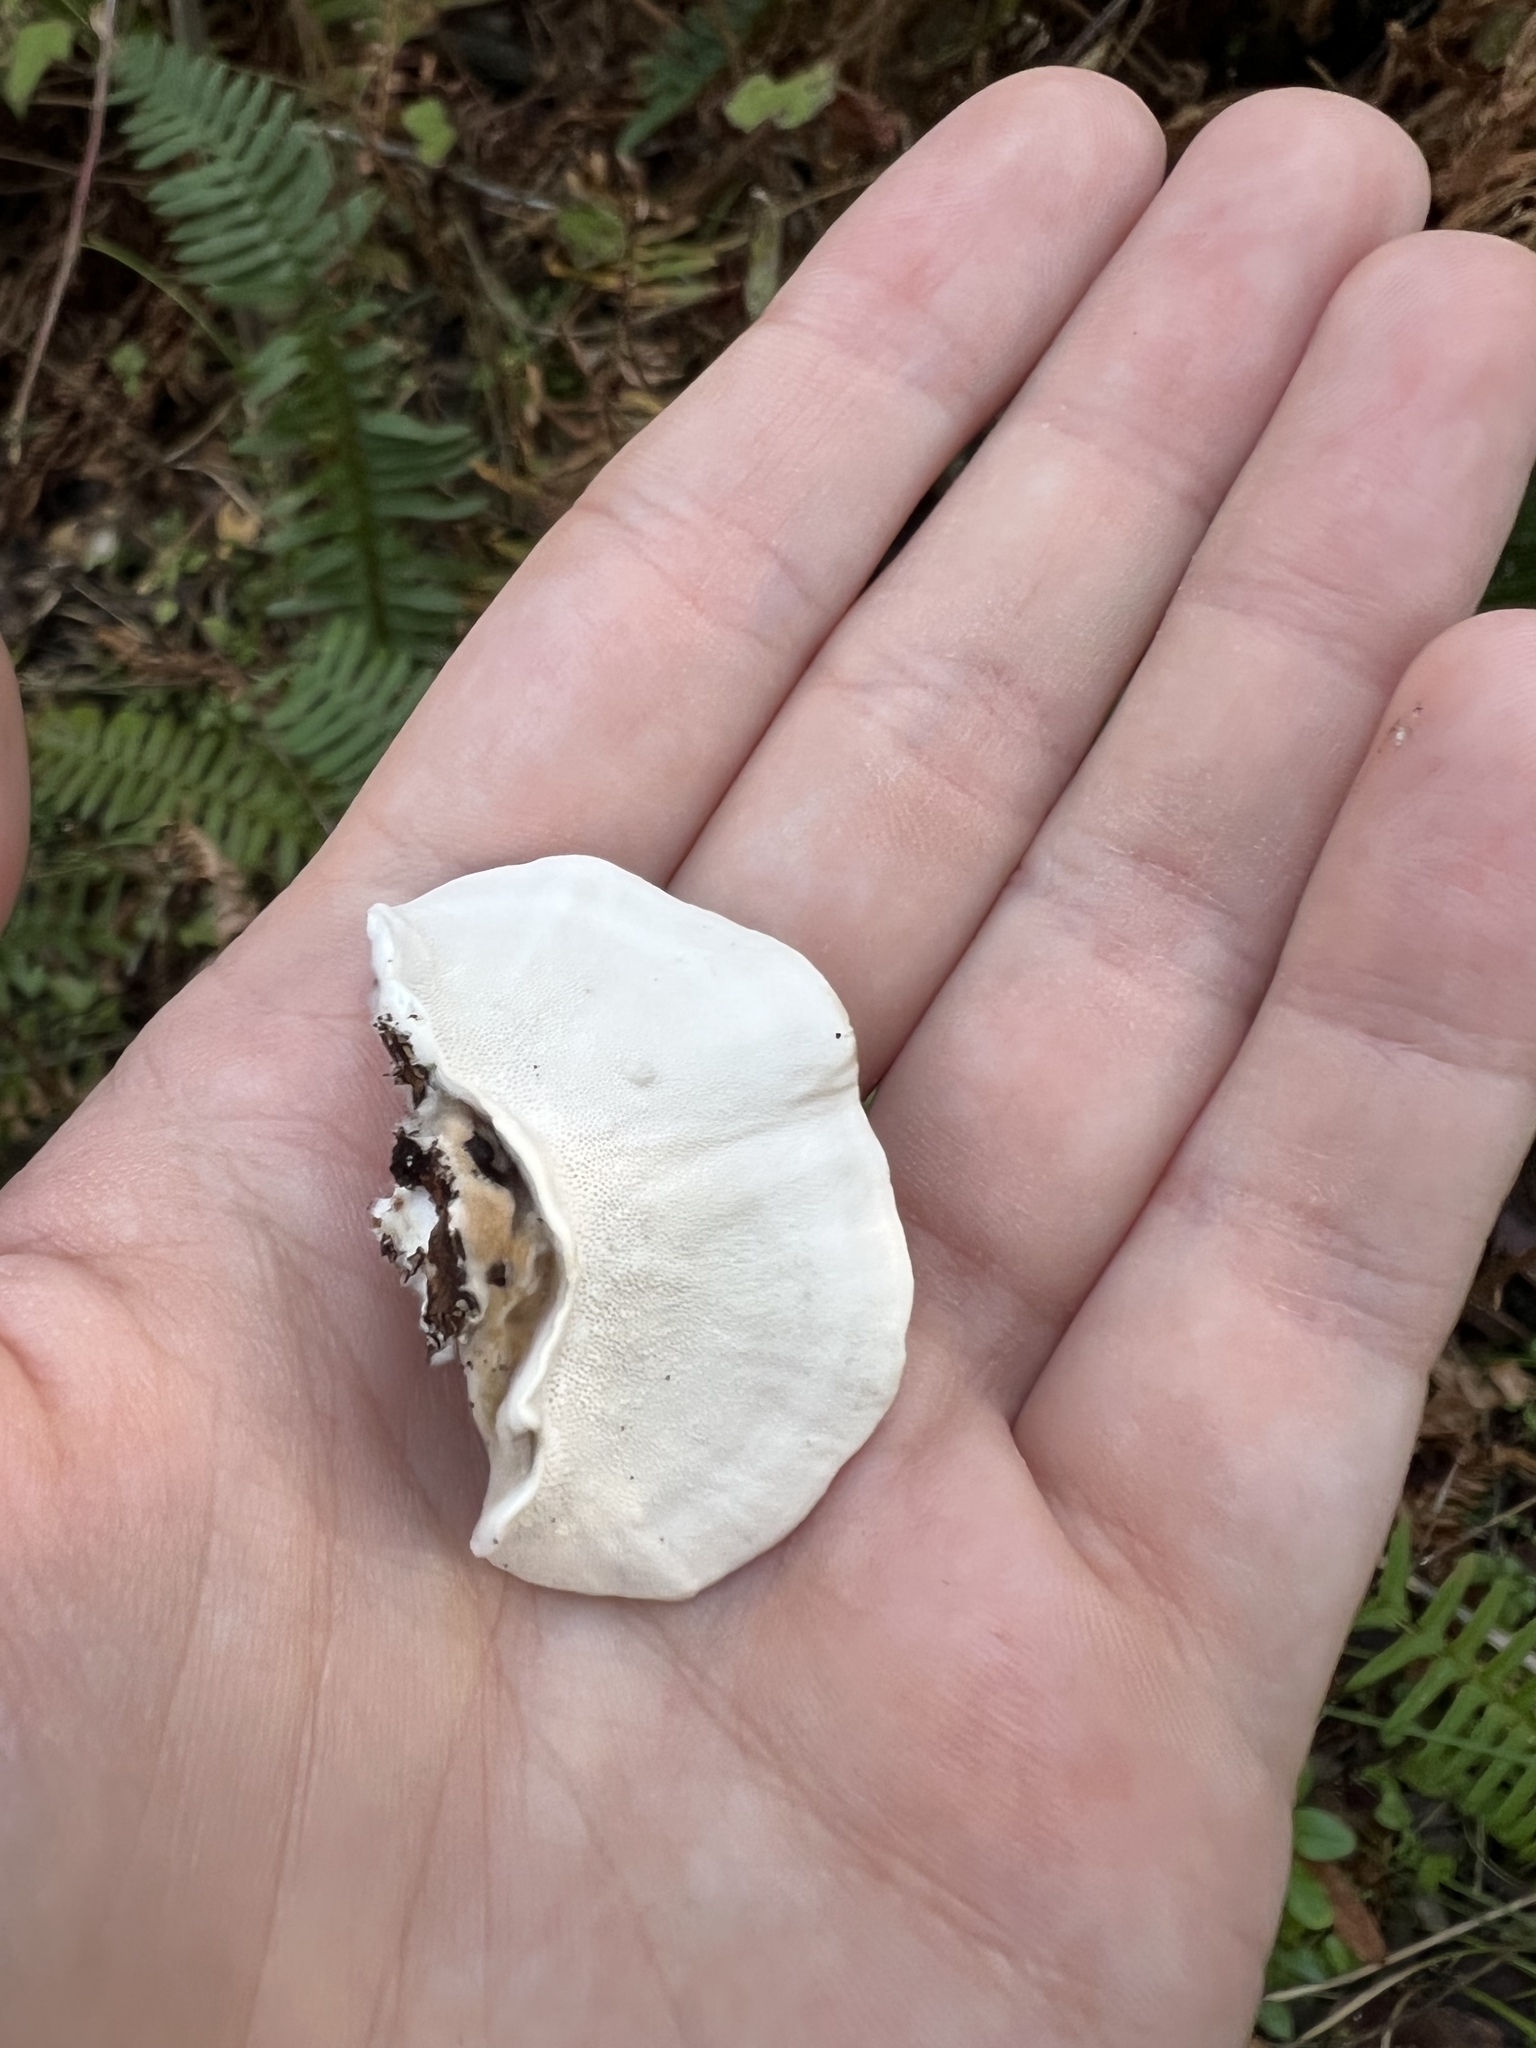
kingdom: Fungi
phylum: Basidiomycota
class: Agaricomycetes
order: Polyporales
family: Polyporaceae
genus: Trametes
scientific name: Trametes versicolor
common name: Turkeytail
